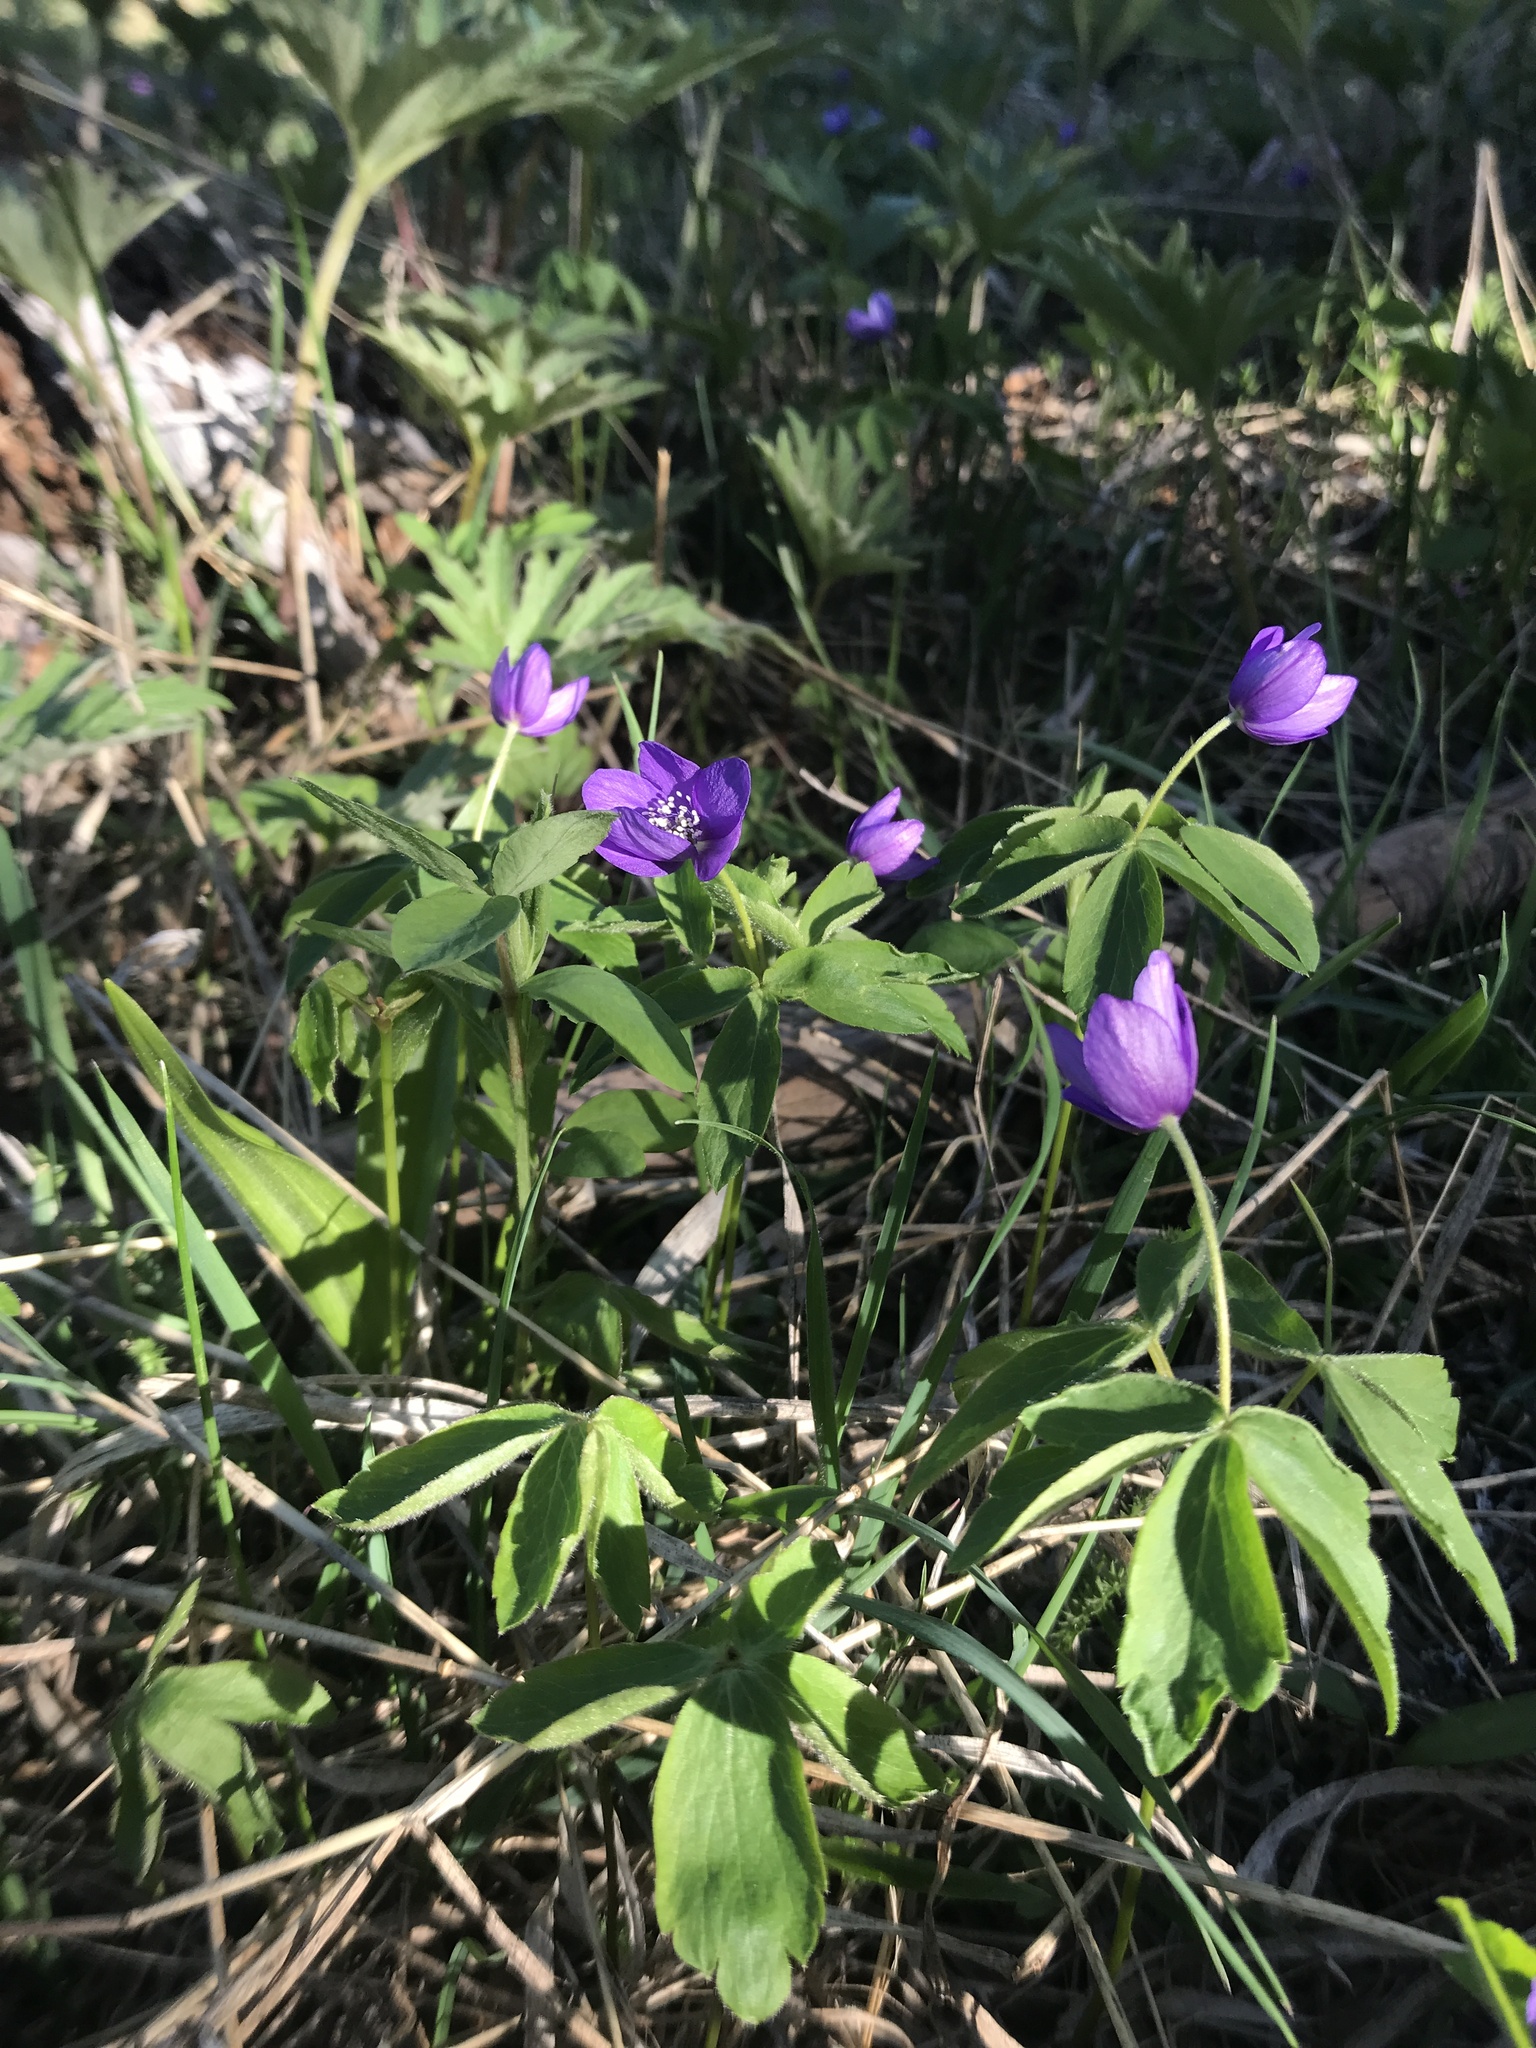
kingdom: Plantae
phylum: Tracheophyta
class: Magnoliopsida
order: Ranunculales
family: Ranunculaceae
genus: Anemone
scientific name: Anemone oregana
